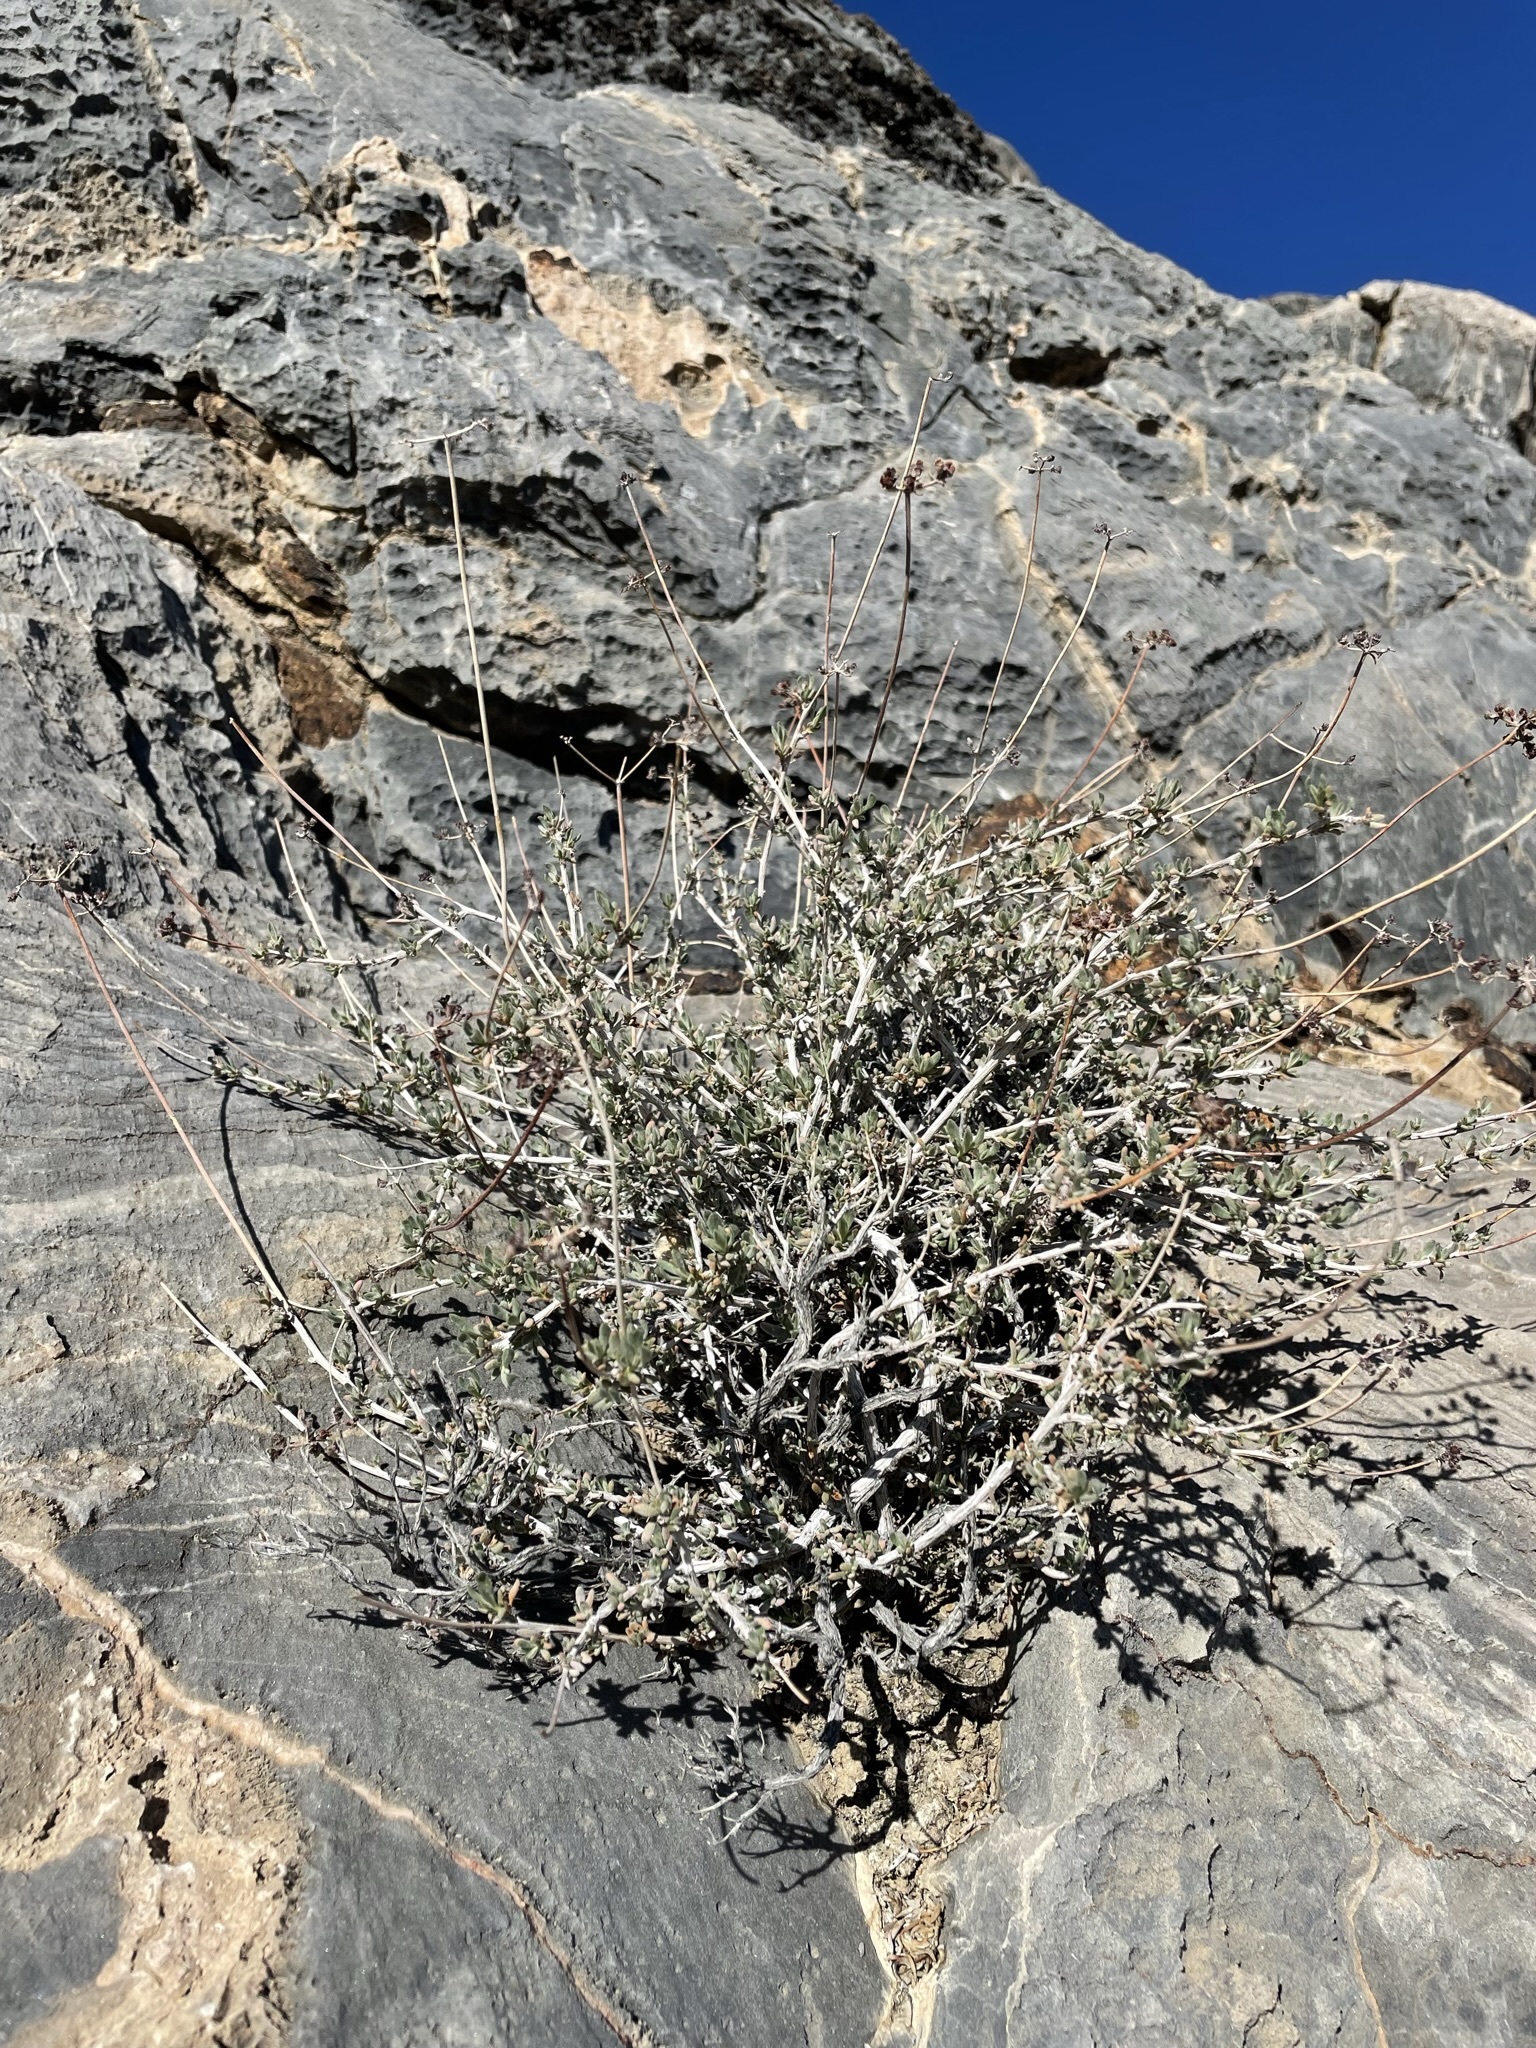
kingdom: Plantae
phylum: Tracheophyta
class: Magnoliopsida
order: Caryophyllales
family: Polygonaceae
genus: Eriogonum
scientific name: Eriogonum fasciculatum
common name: California wild buckwheat
